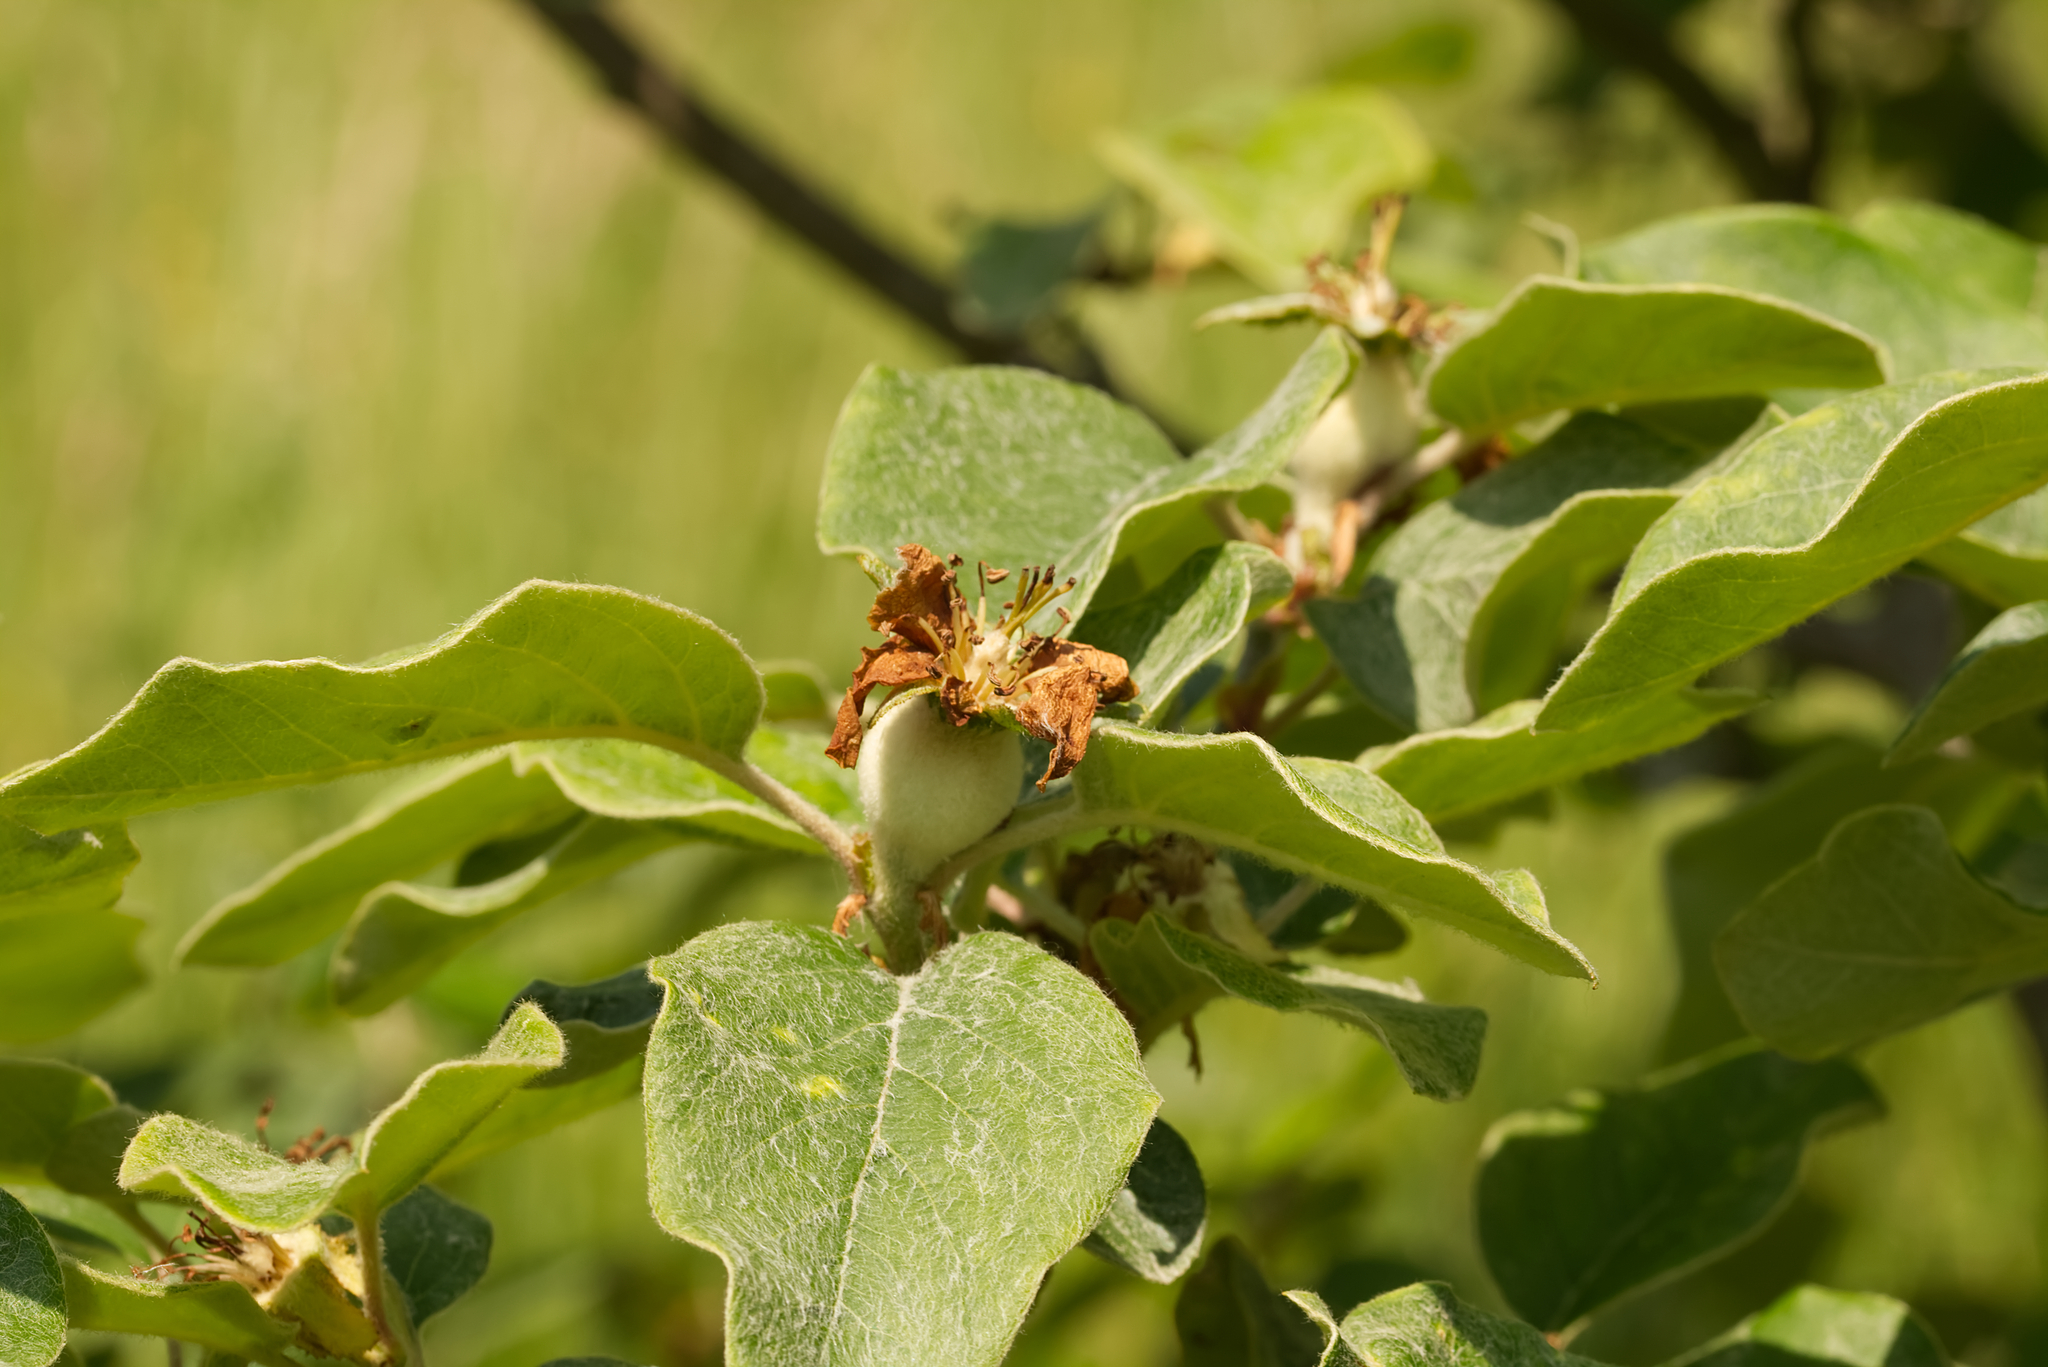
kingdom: Plantae
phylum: Tracheophyta
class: Magnoliopsida
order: Rosales
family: Rosaceae
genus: Cydonia
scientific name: Cydonia oblonga
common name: Quince
